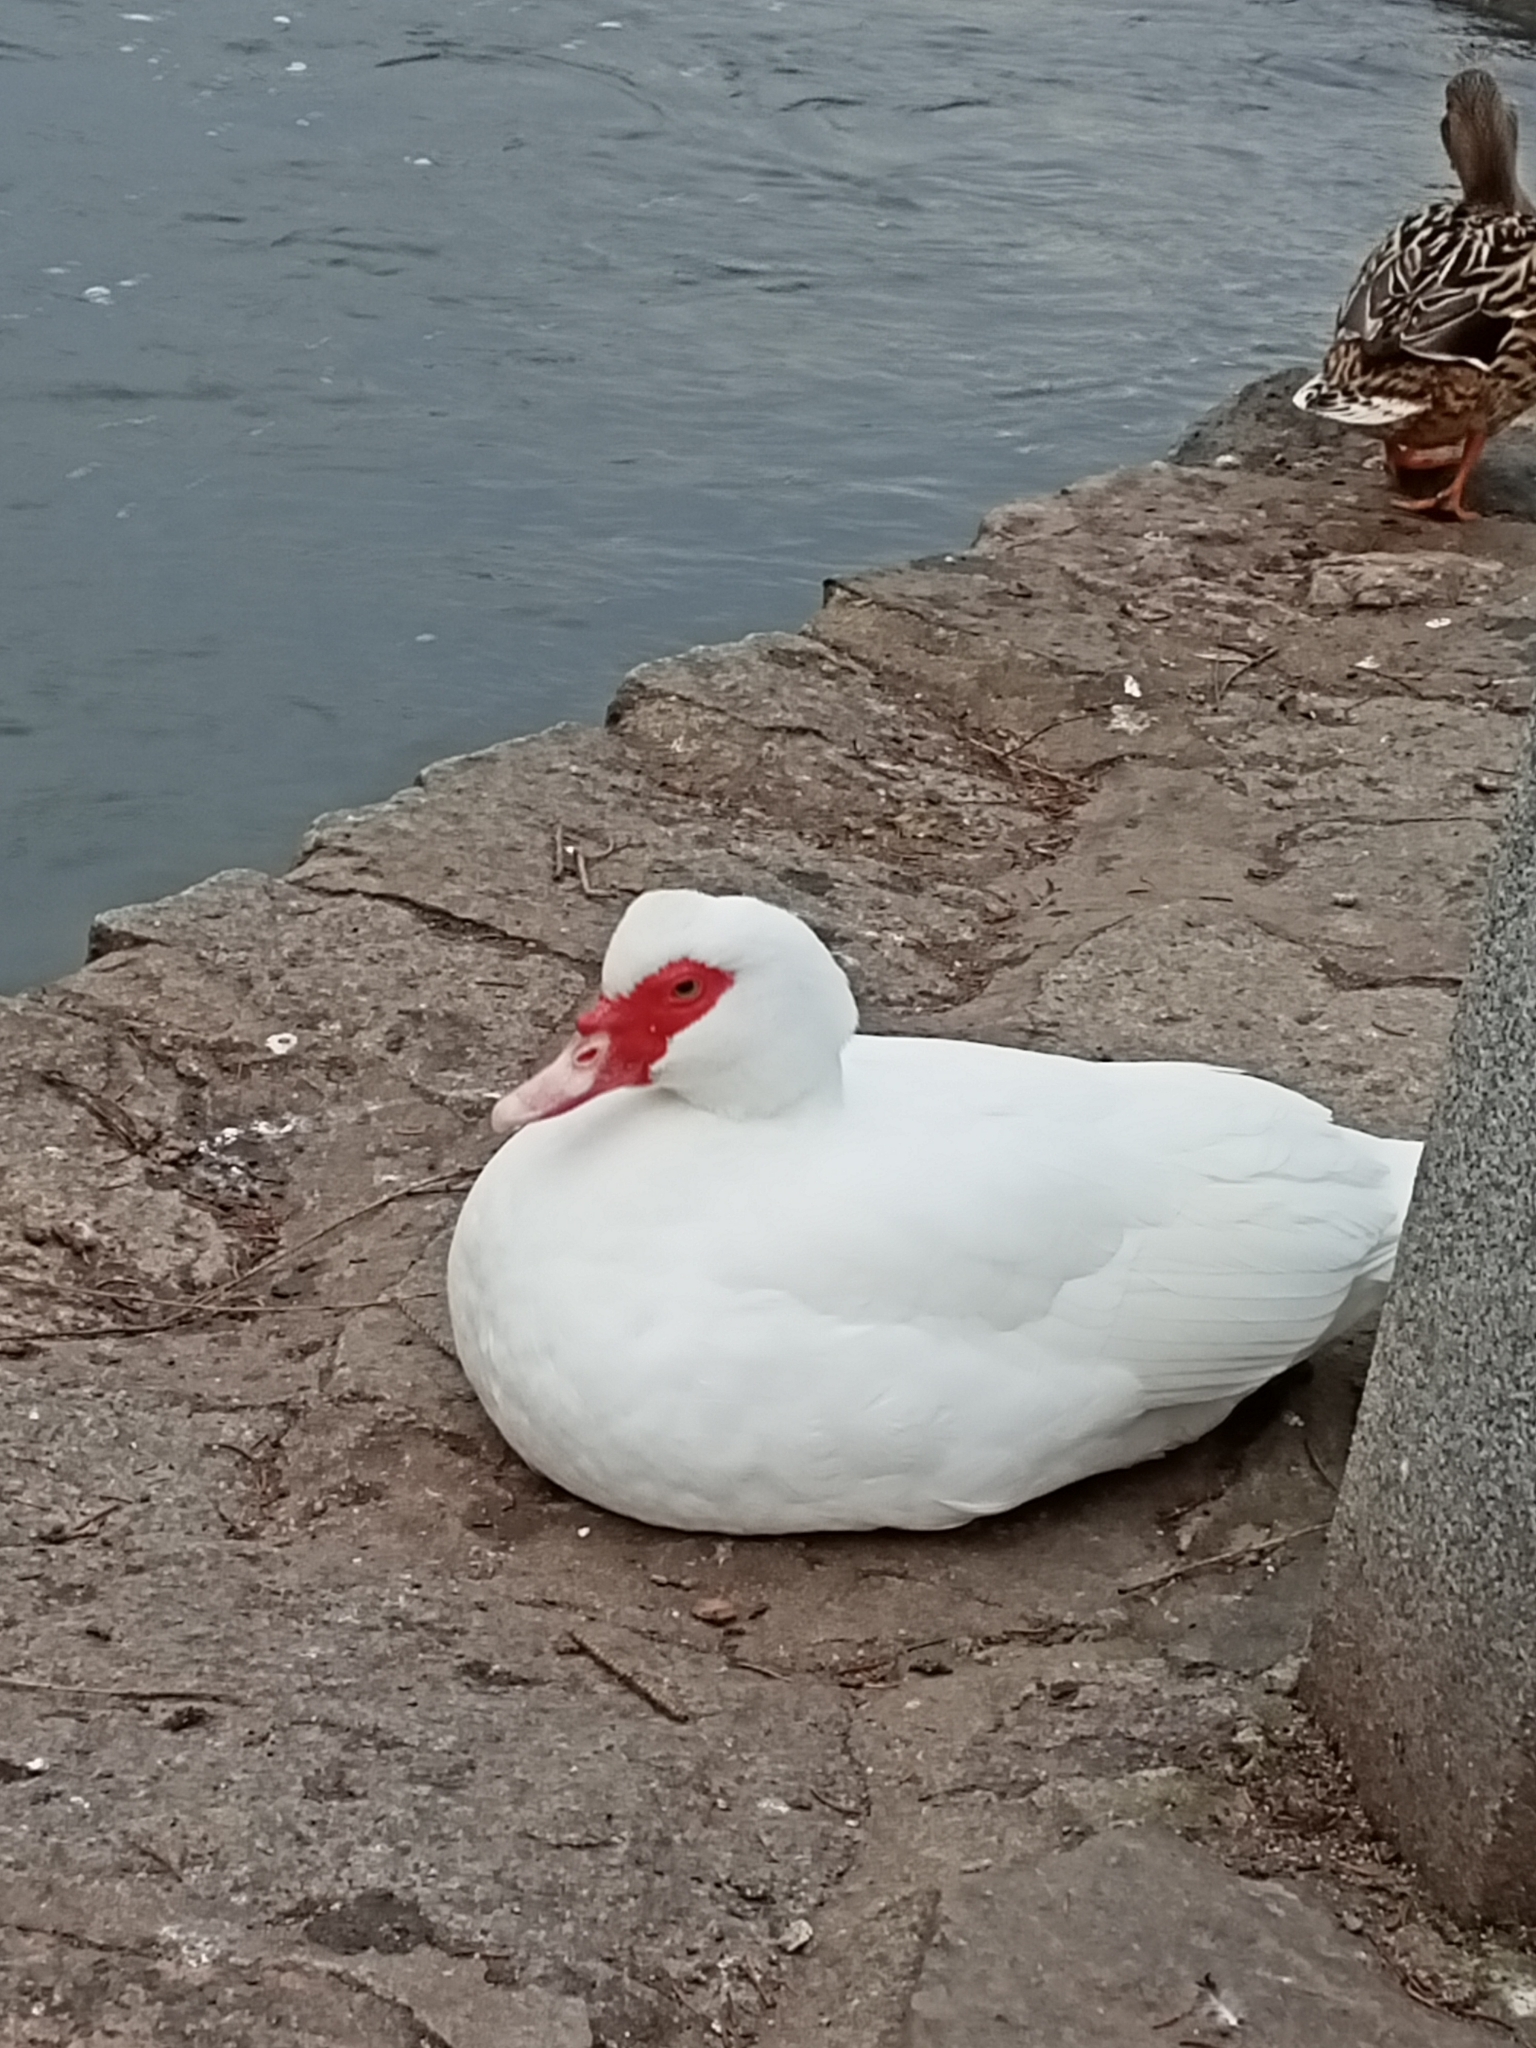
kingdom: Animalia
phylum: Chordata
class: Aves
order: Anseriformes
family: Anatidae
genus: Cairina
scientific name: Cairina moschata
